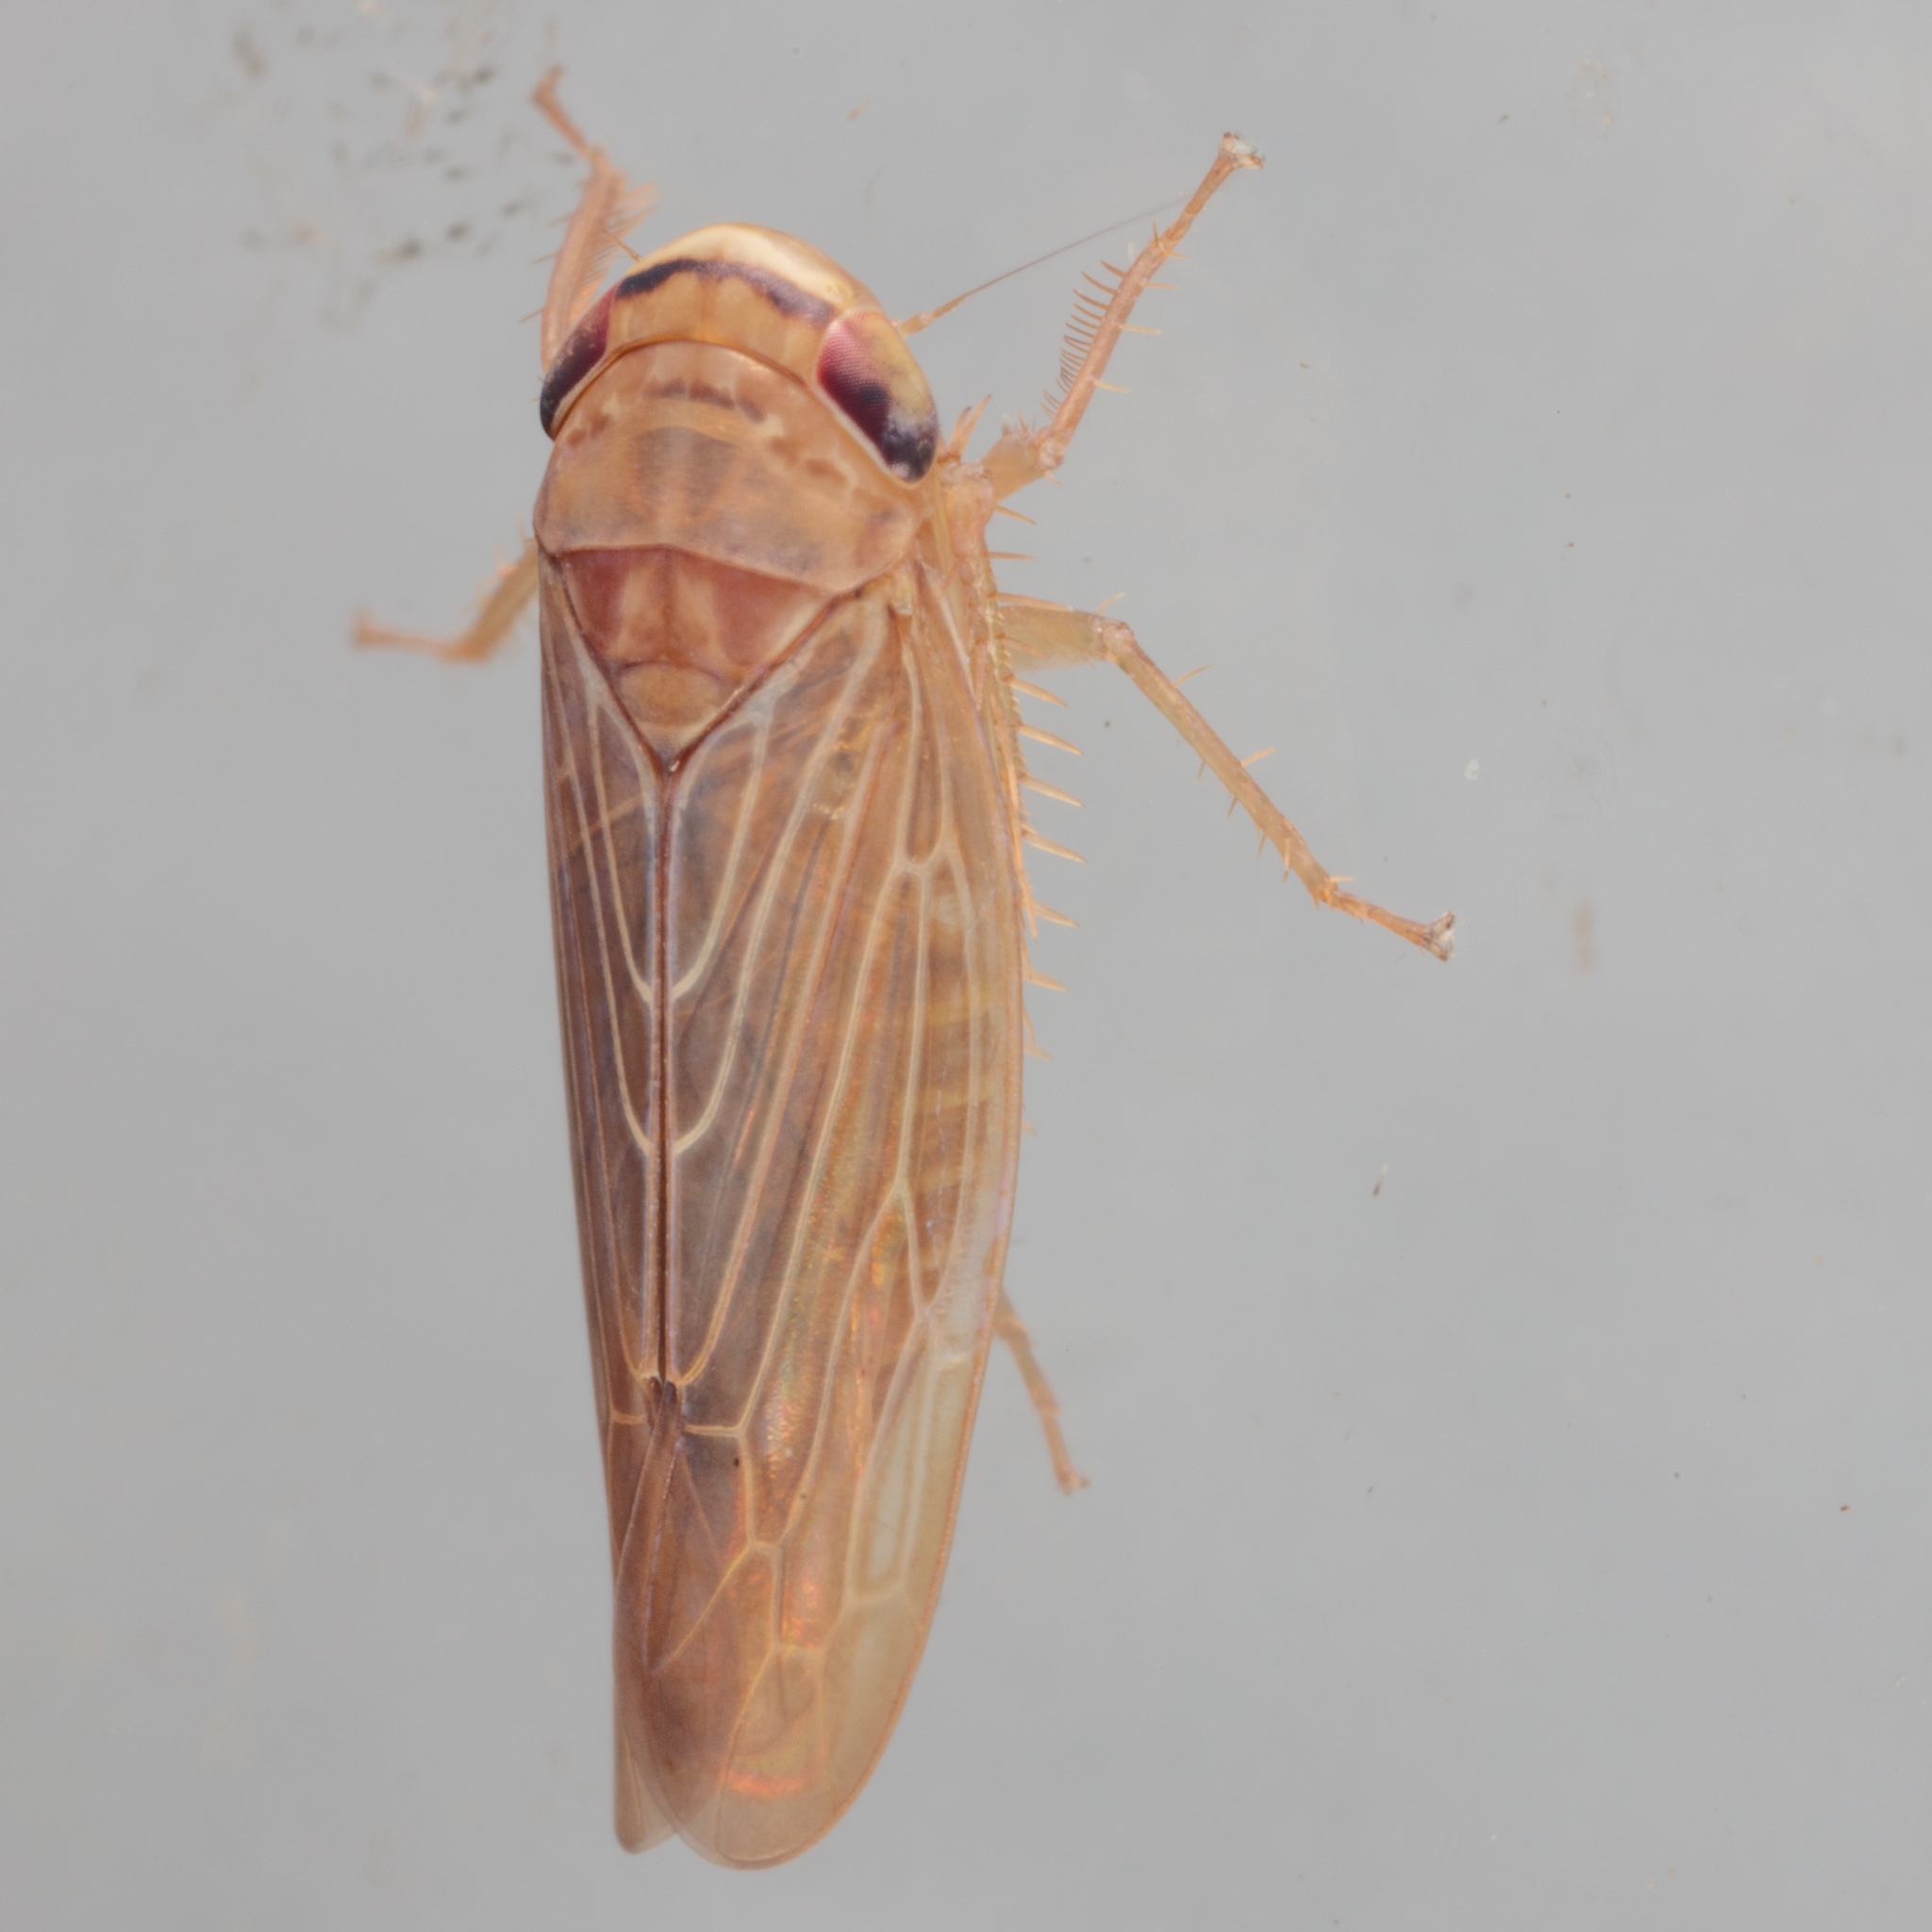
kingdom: Animalia
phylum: Arthropoda
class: Insecta
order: Hemiptera
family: Cicadellidae
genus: Chlorotettix
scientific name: Chlorotettix necopinus
